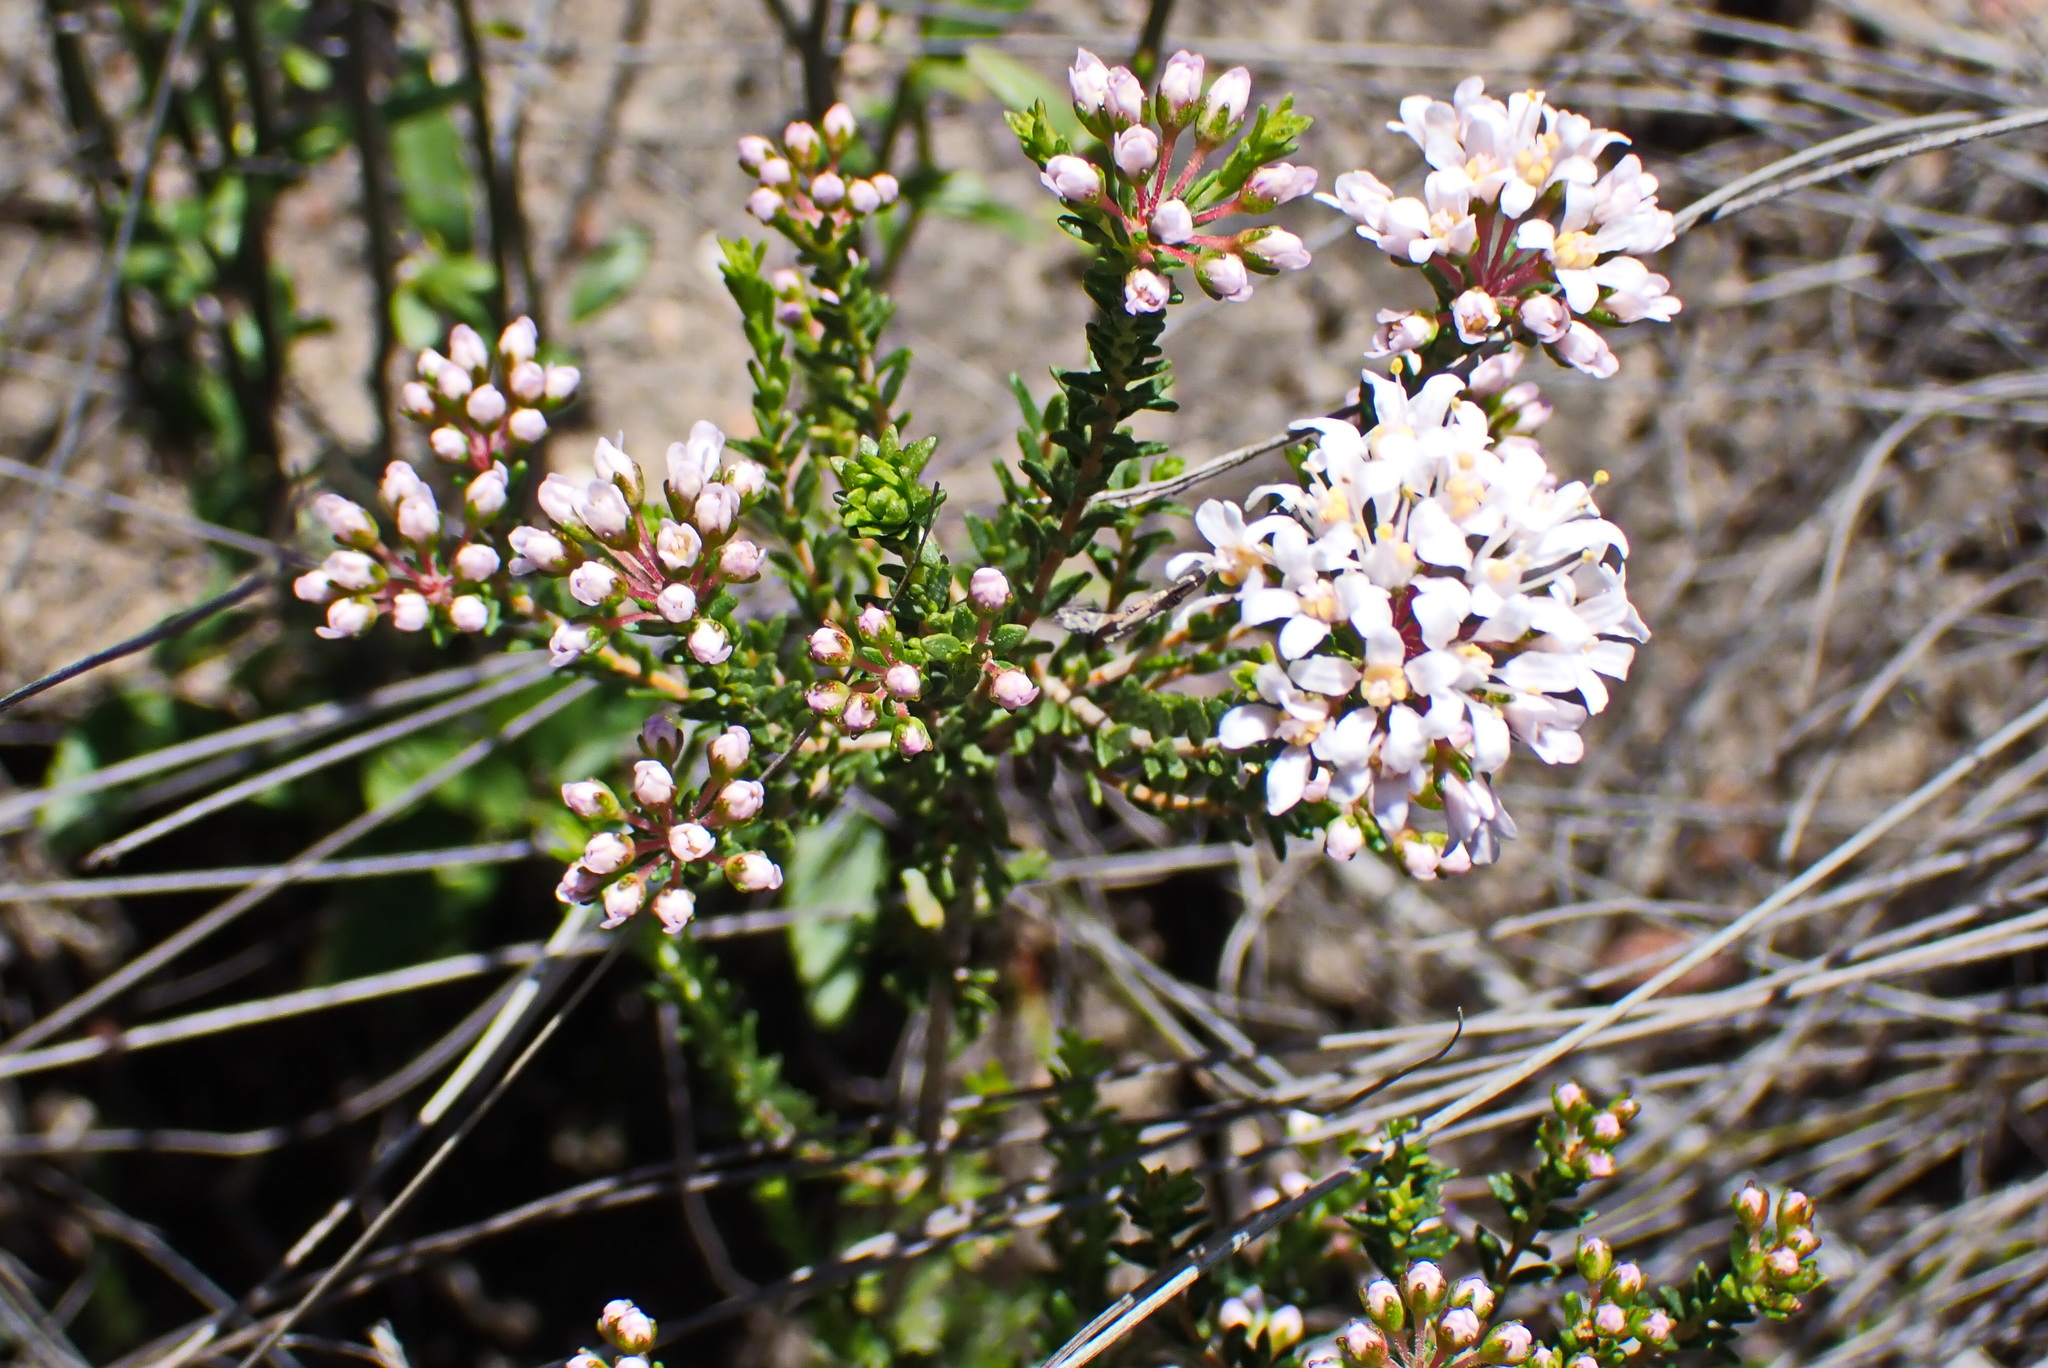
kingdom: Plantae
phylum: Tracheophyta
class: Magnoliopsida
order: Sapindales
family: Rutaceae
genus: Agathosma
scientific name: Agathosma capensis
